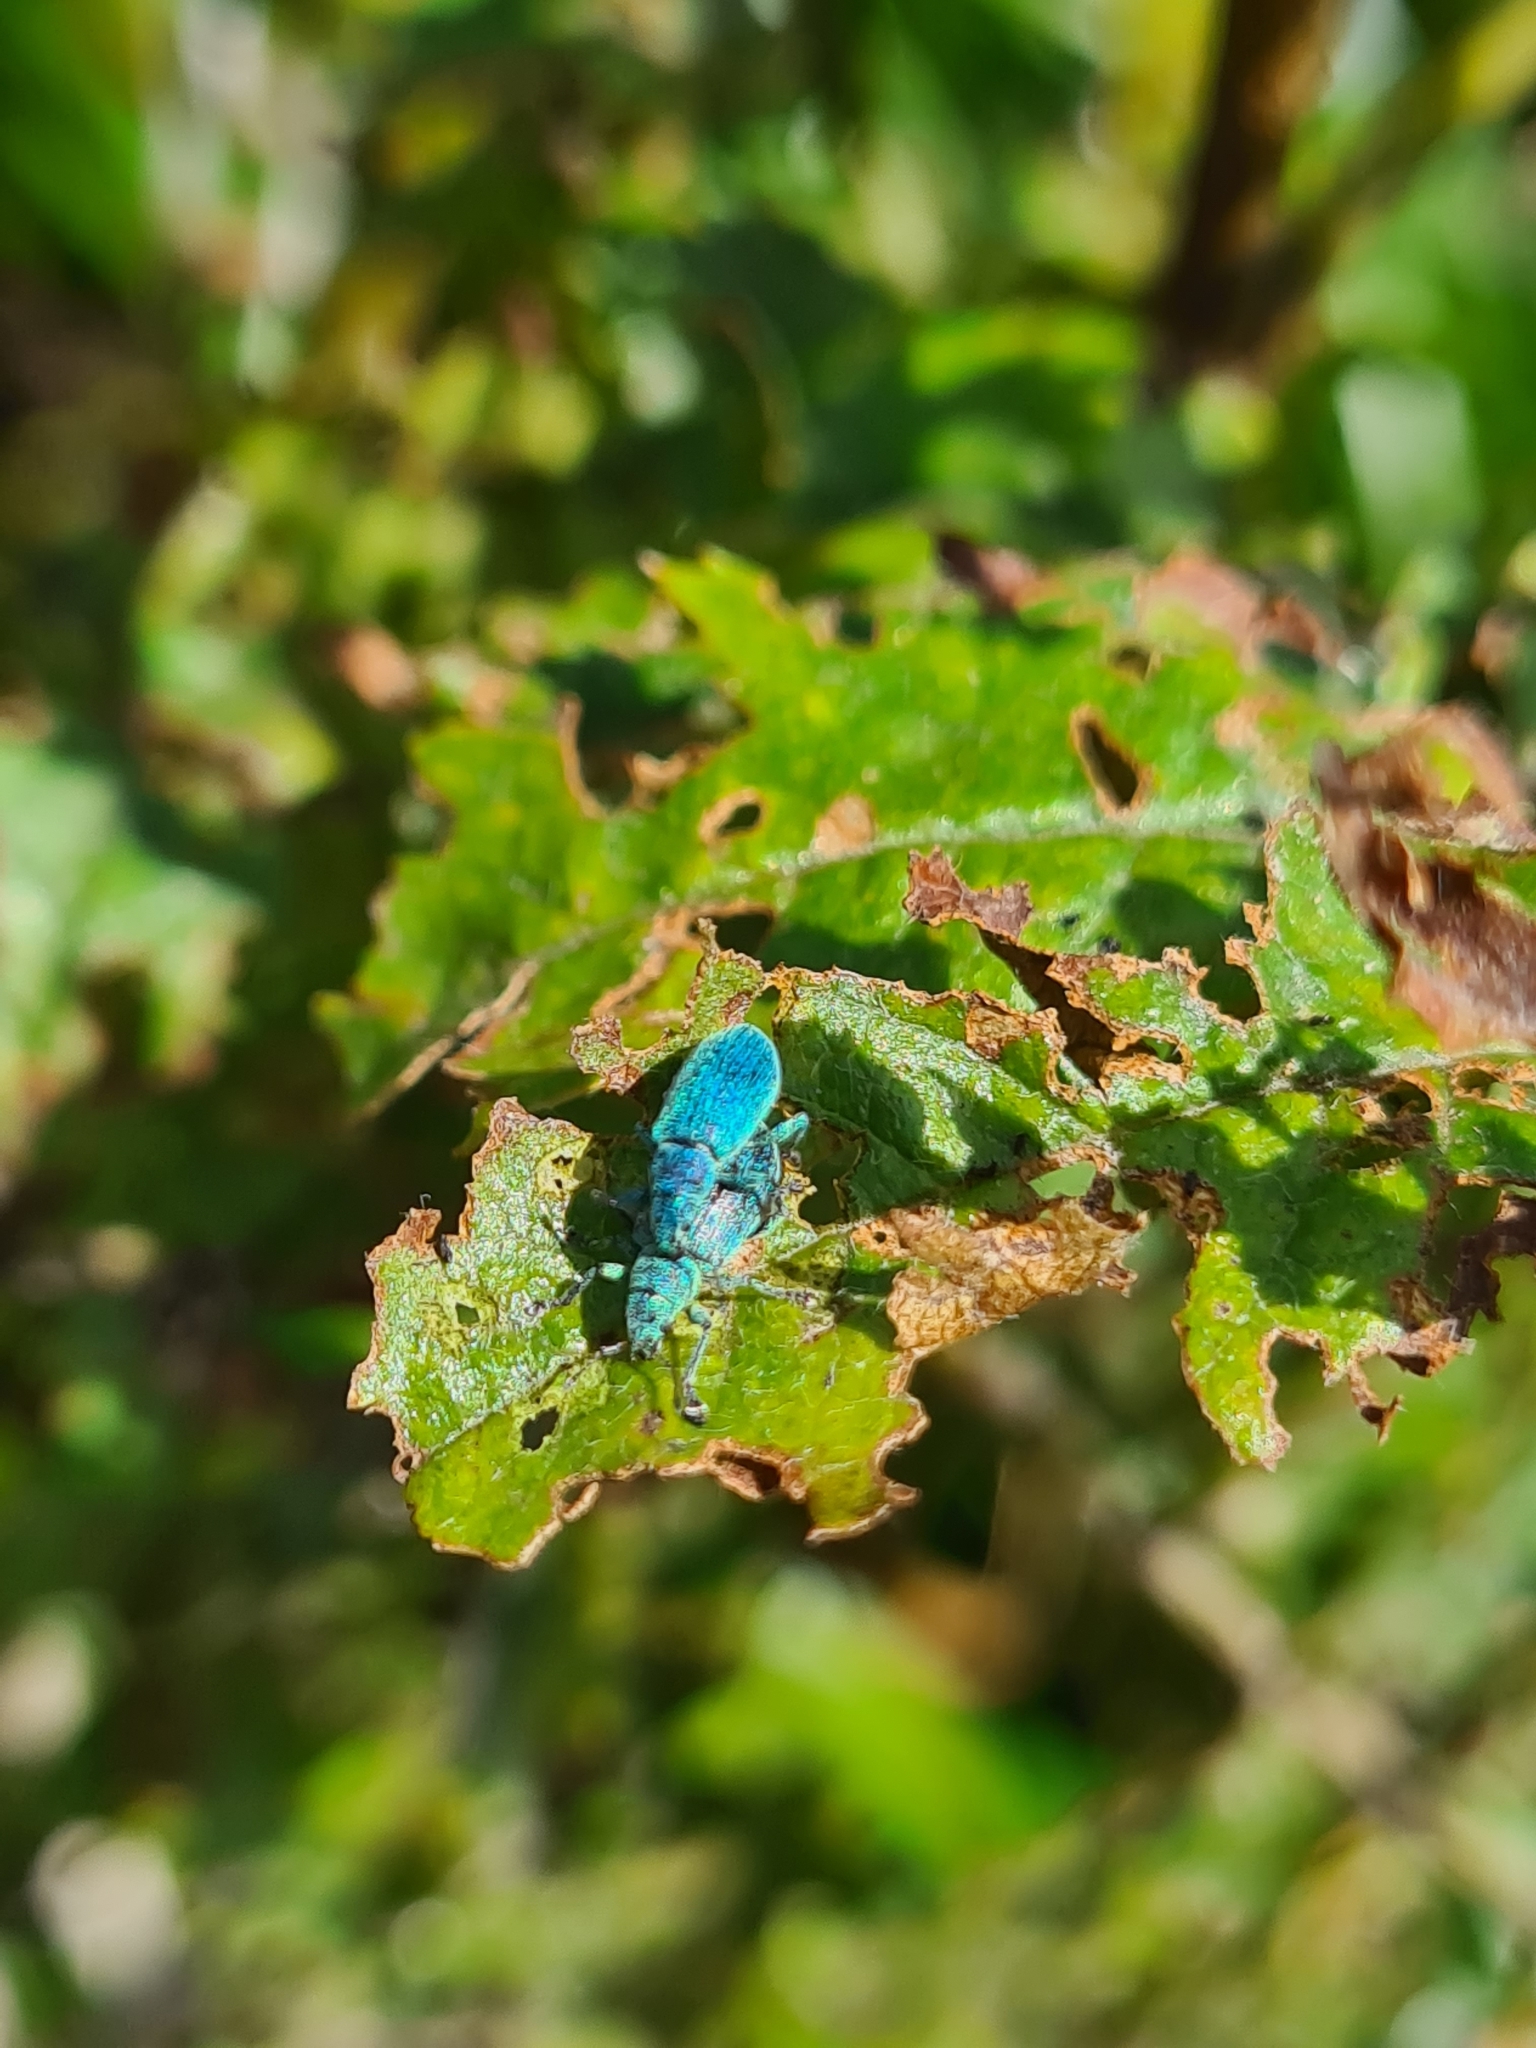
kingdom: Animalia
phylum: Arthropoda
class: Insecta
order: Coleoptera
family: Curculionidae
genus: Polydrusus
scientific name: Polydrusus amoenus
